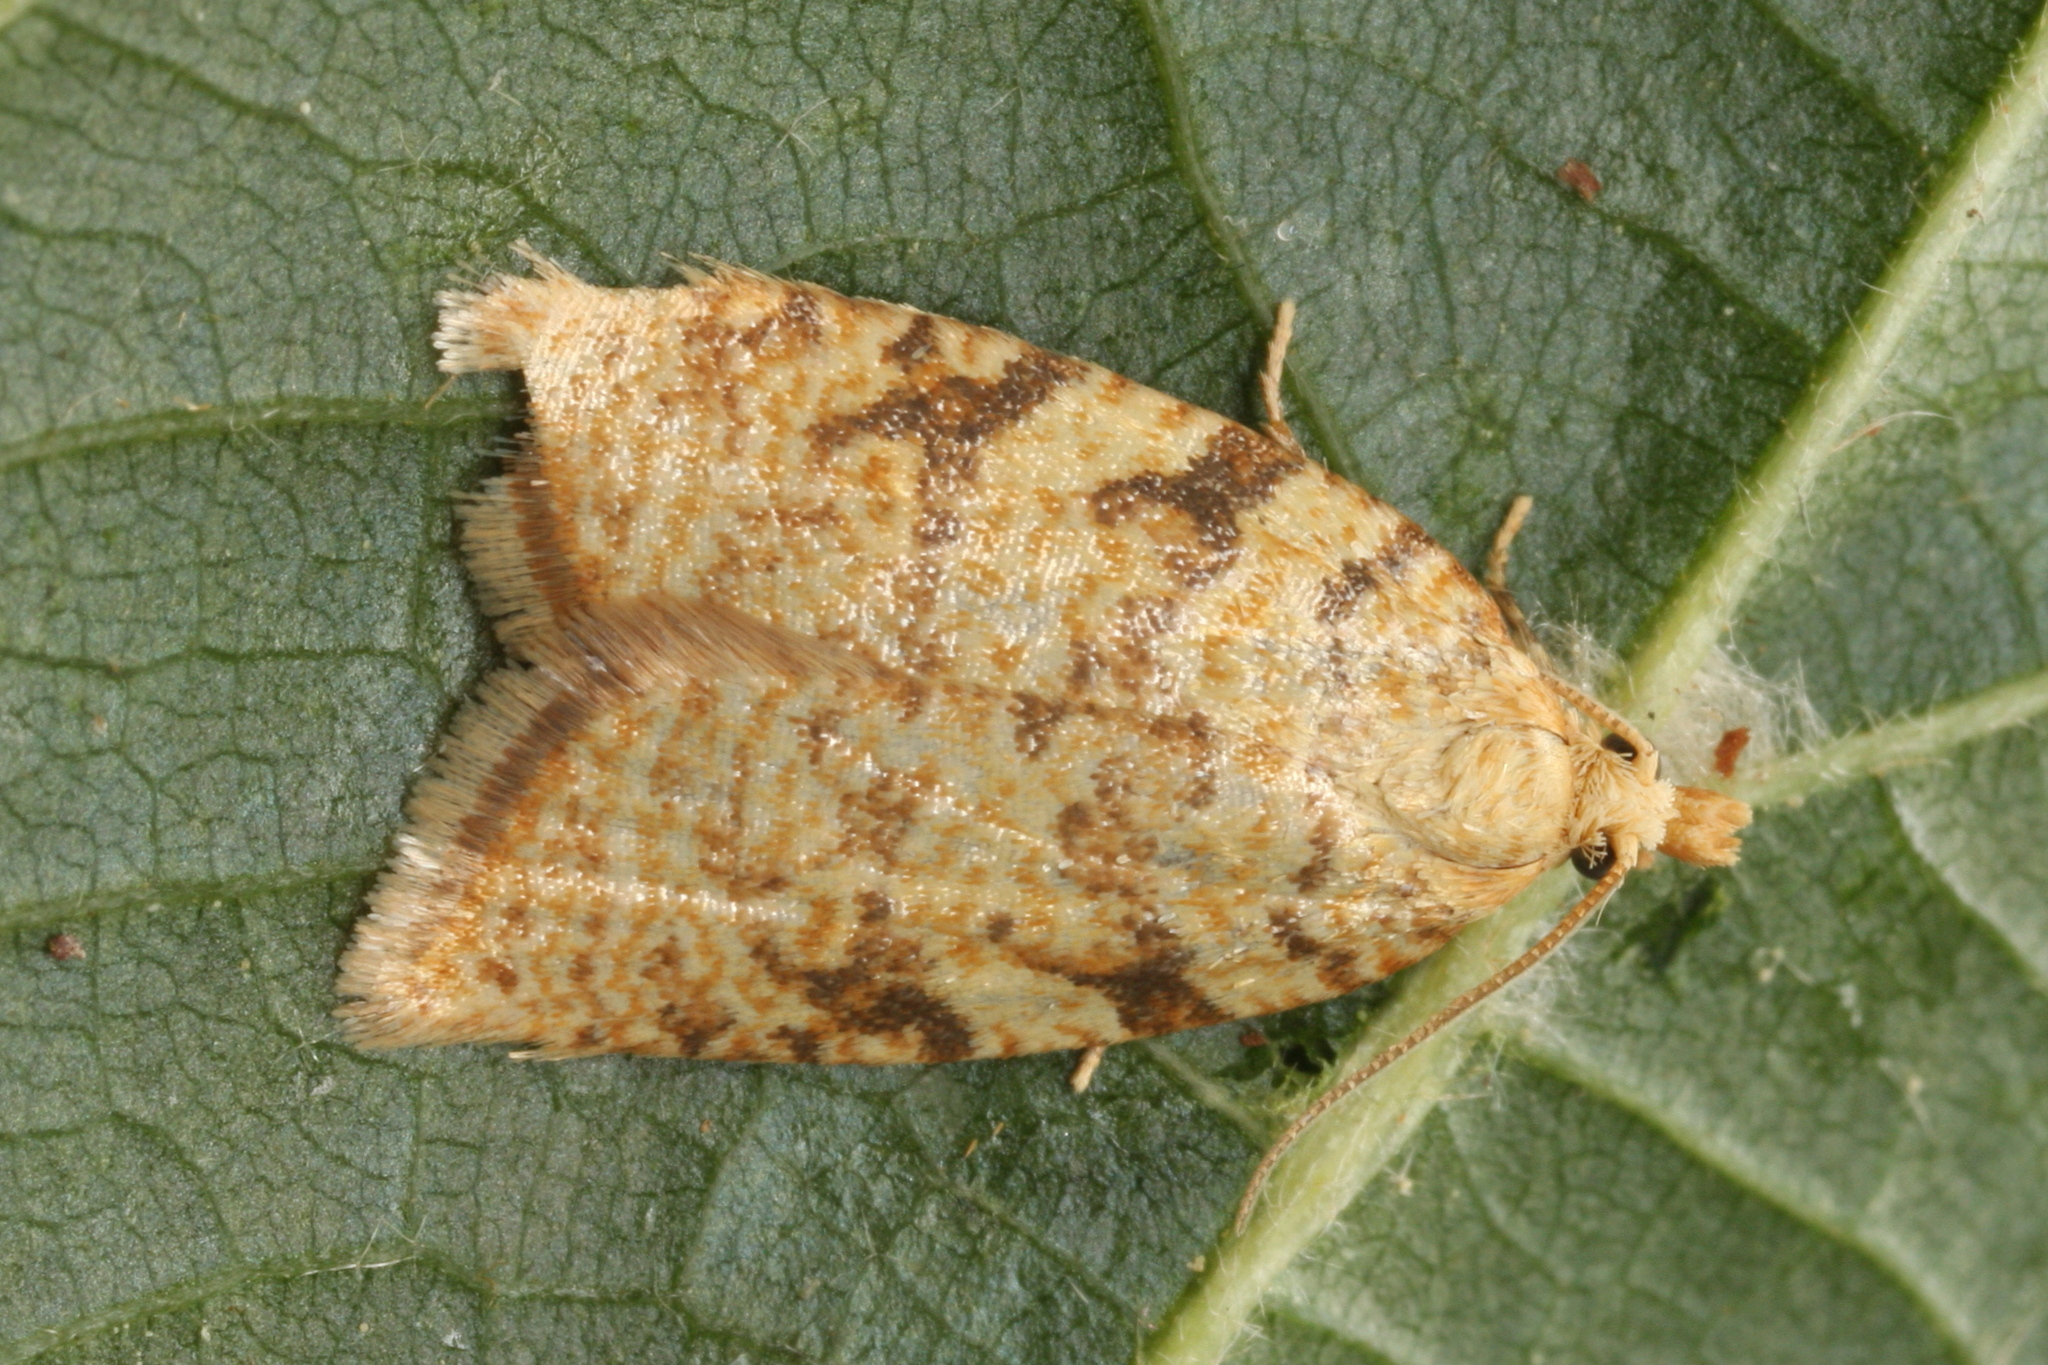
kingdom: Animalia
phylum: Arthropoda
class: Insecta
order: Lepidoptera
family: Tortricidae
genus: Aleimma
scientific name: Aleimma loeflingiana
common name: Yellow oak button
